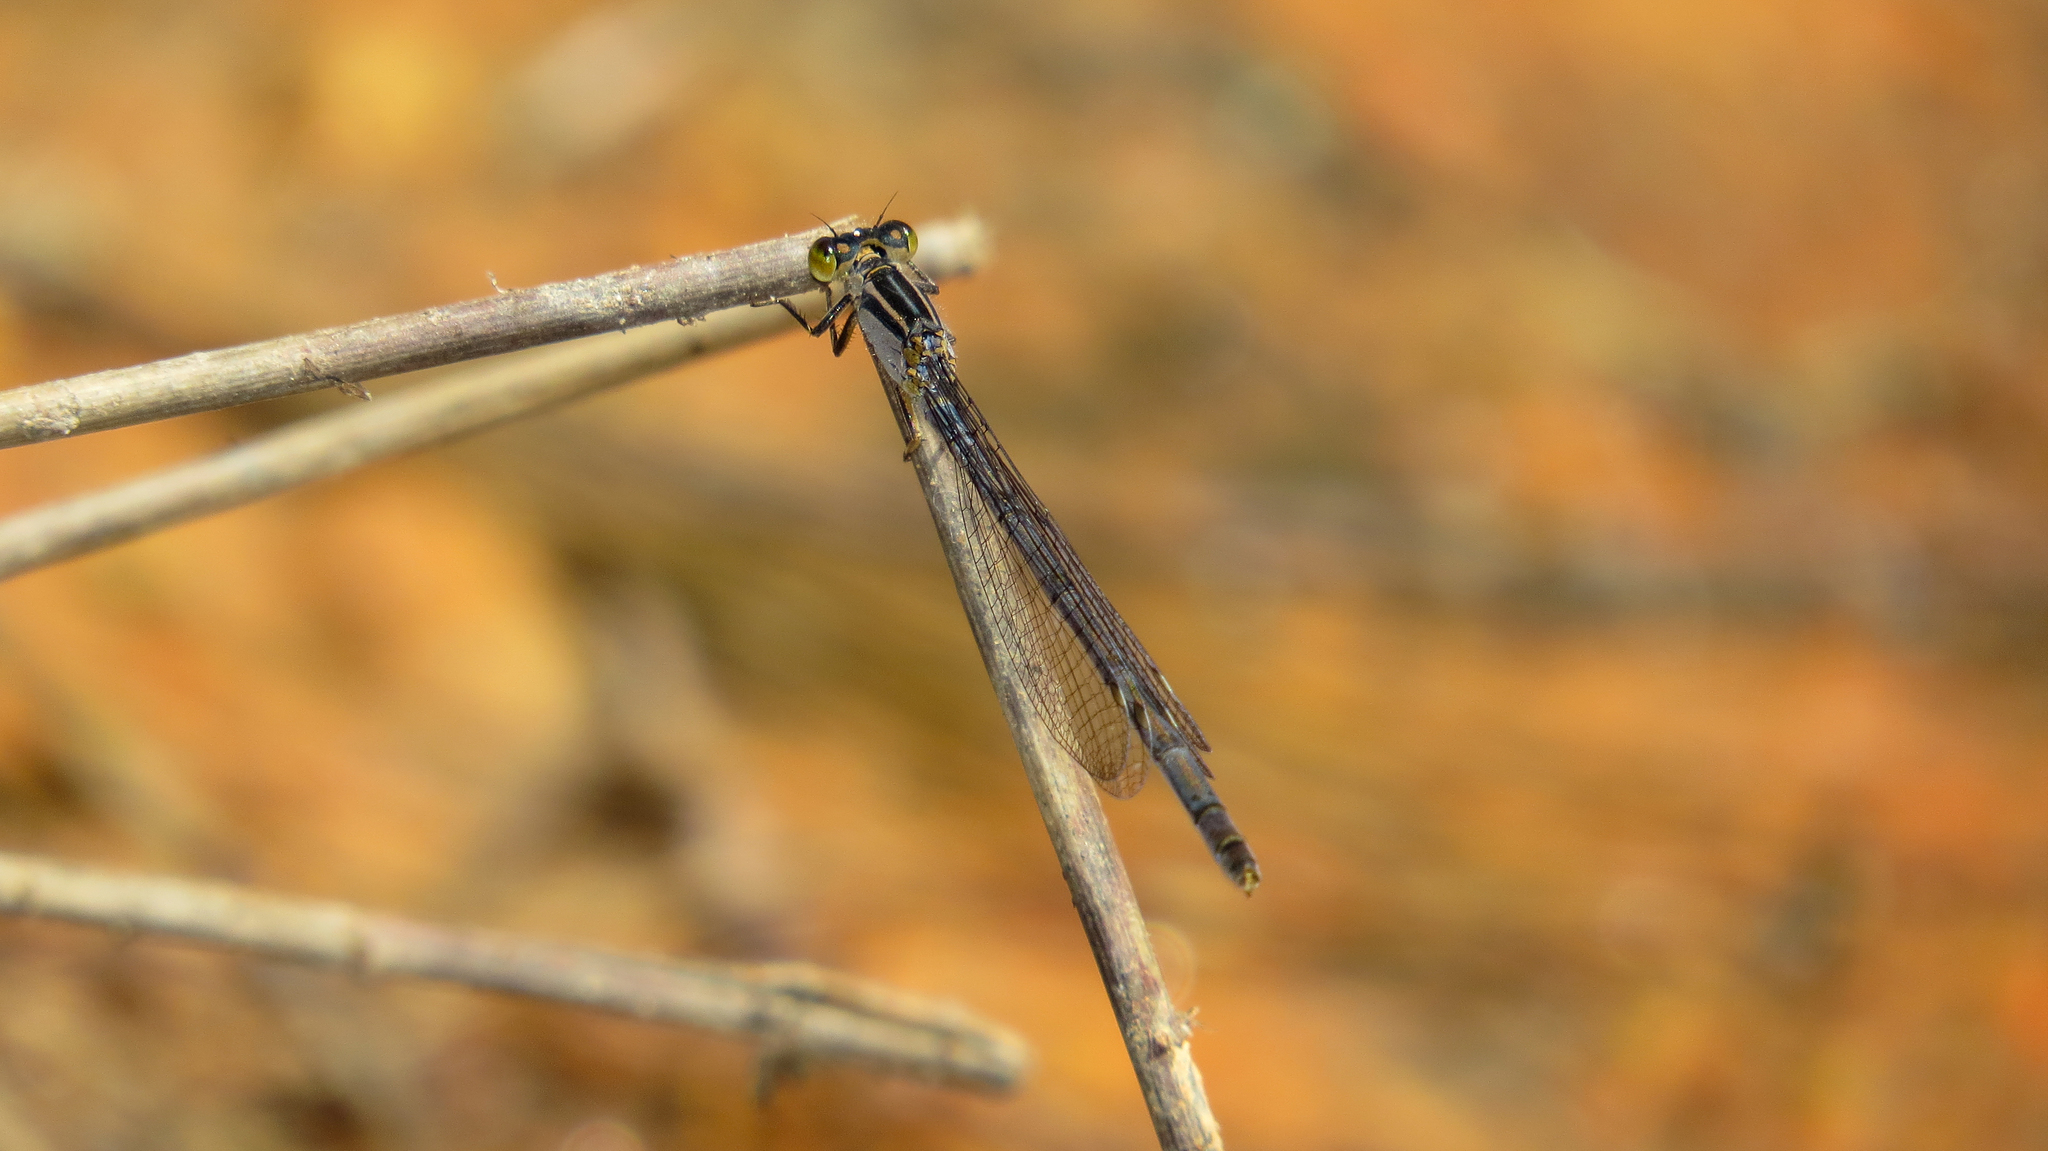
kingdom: Animalia
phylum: Arthropoda
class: Insecta
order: Odonata
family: Coenagrionidae
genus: Ischnura
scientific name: Ischnura heterosticta
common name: Common bluetail
